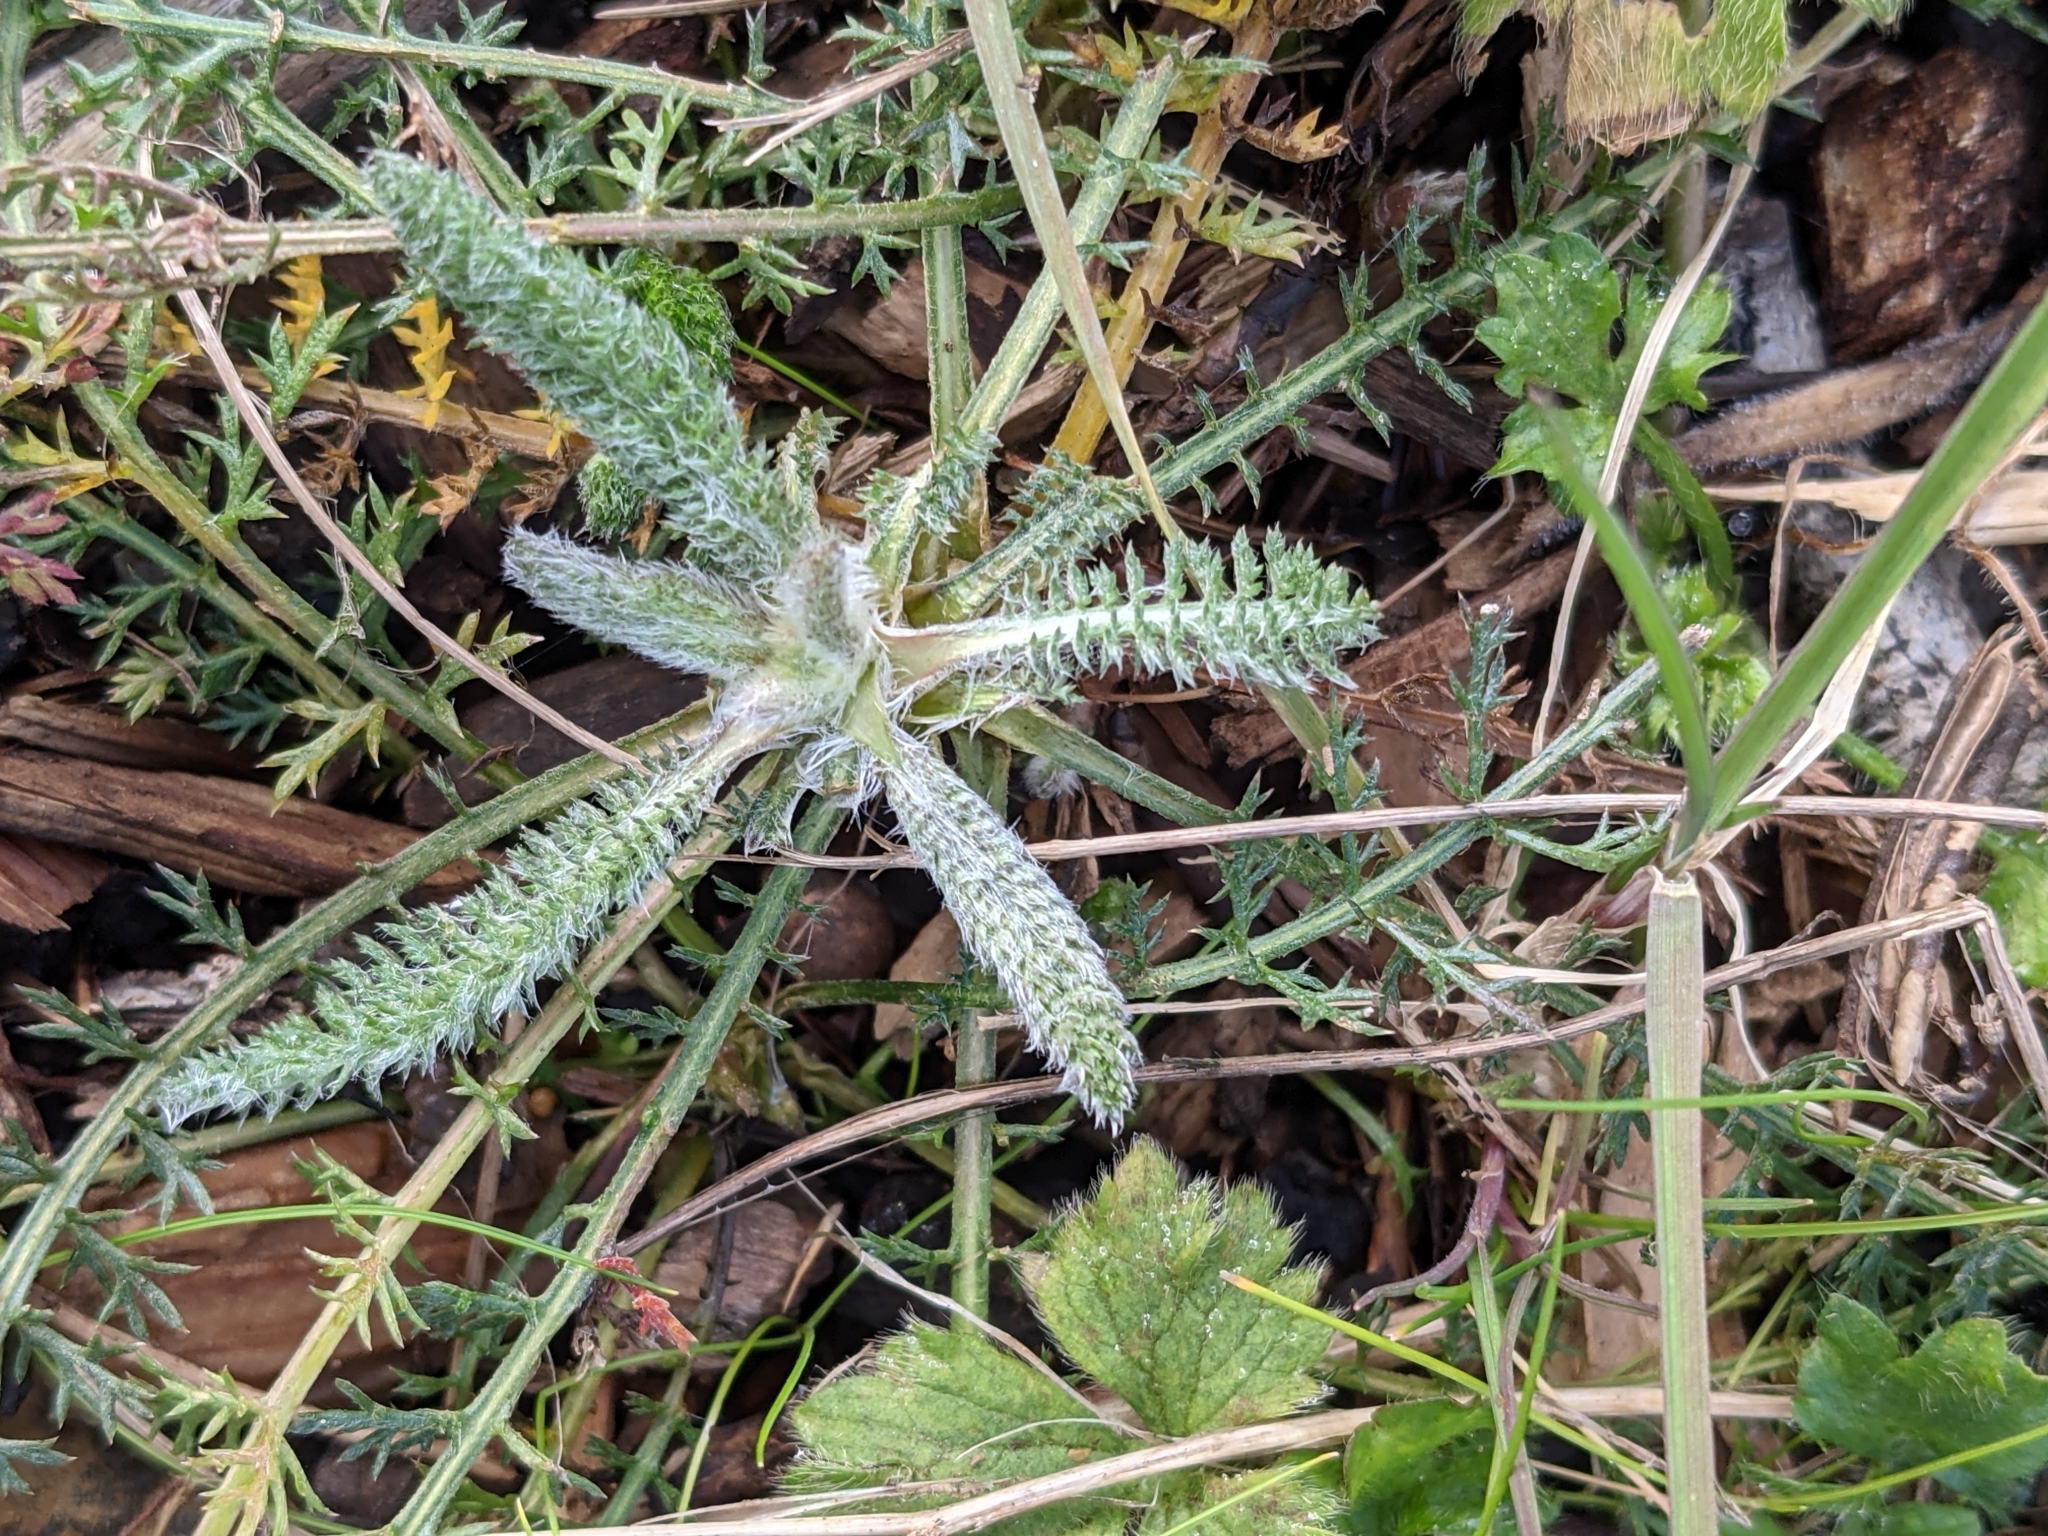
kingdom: Plantae
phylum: Tracheophyta
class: Magnoliopsida
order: Asterales
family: Asteraceae
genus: Achillea
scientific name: Achillea millefolium
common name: Yarrow
